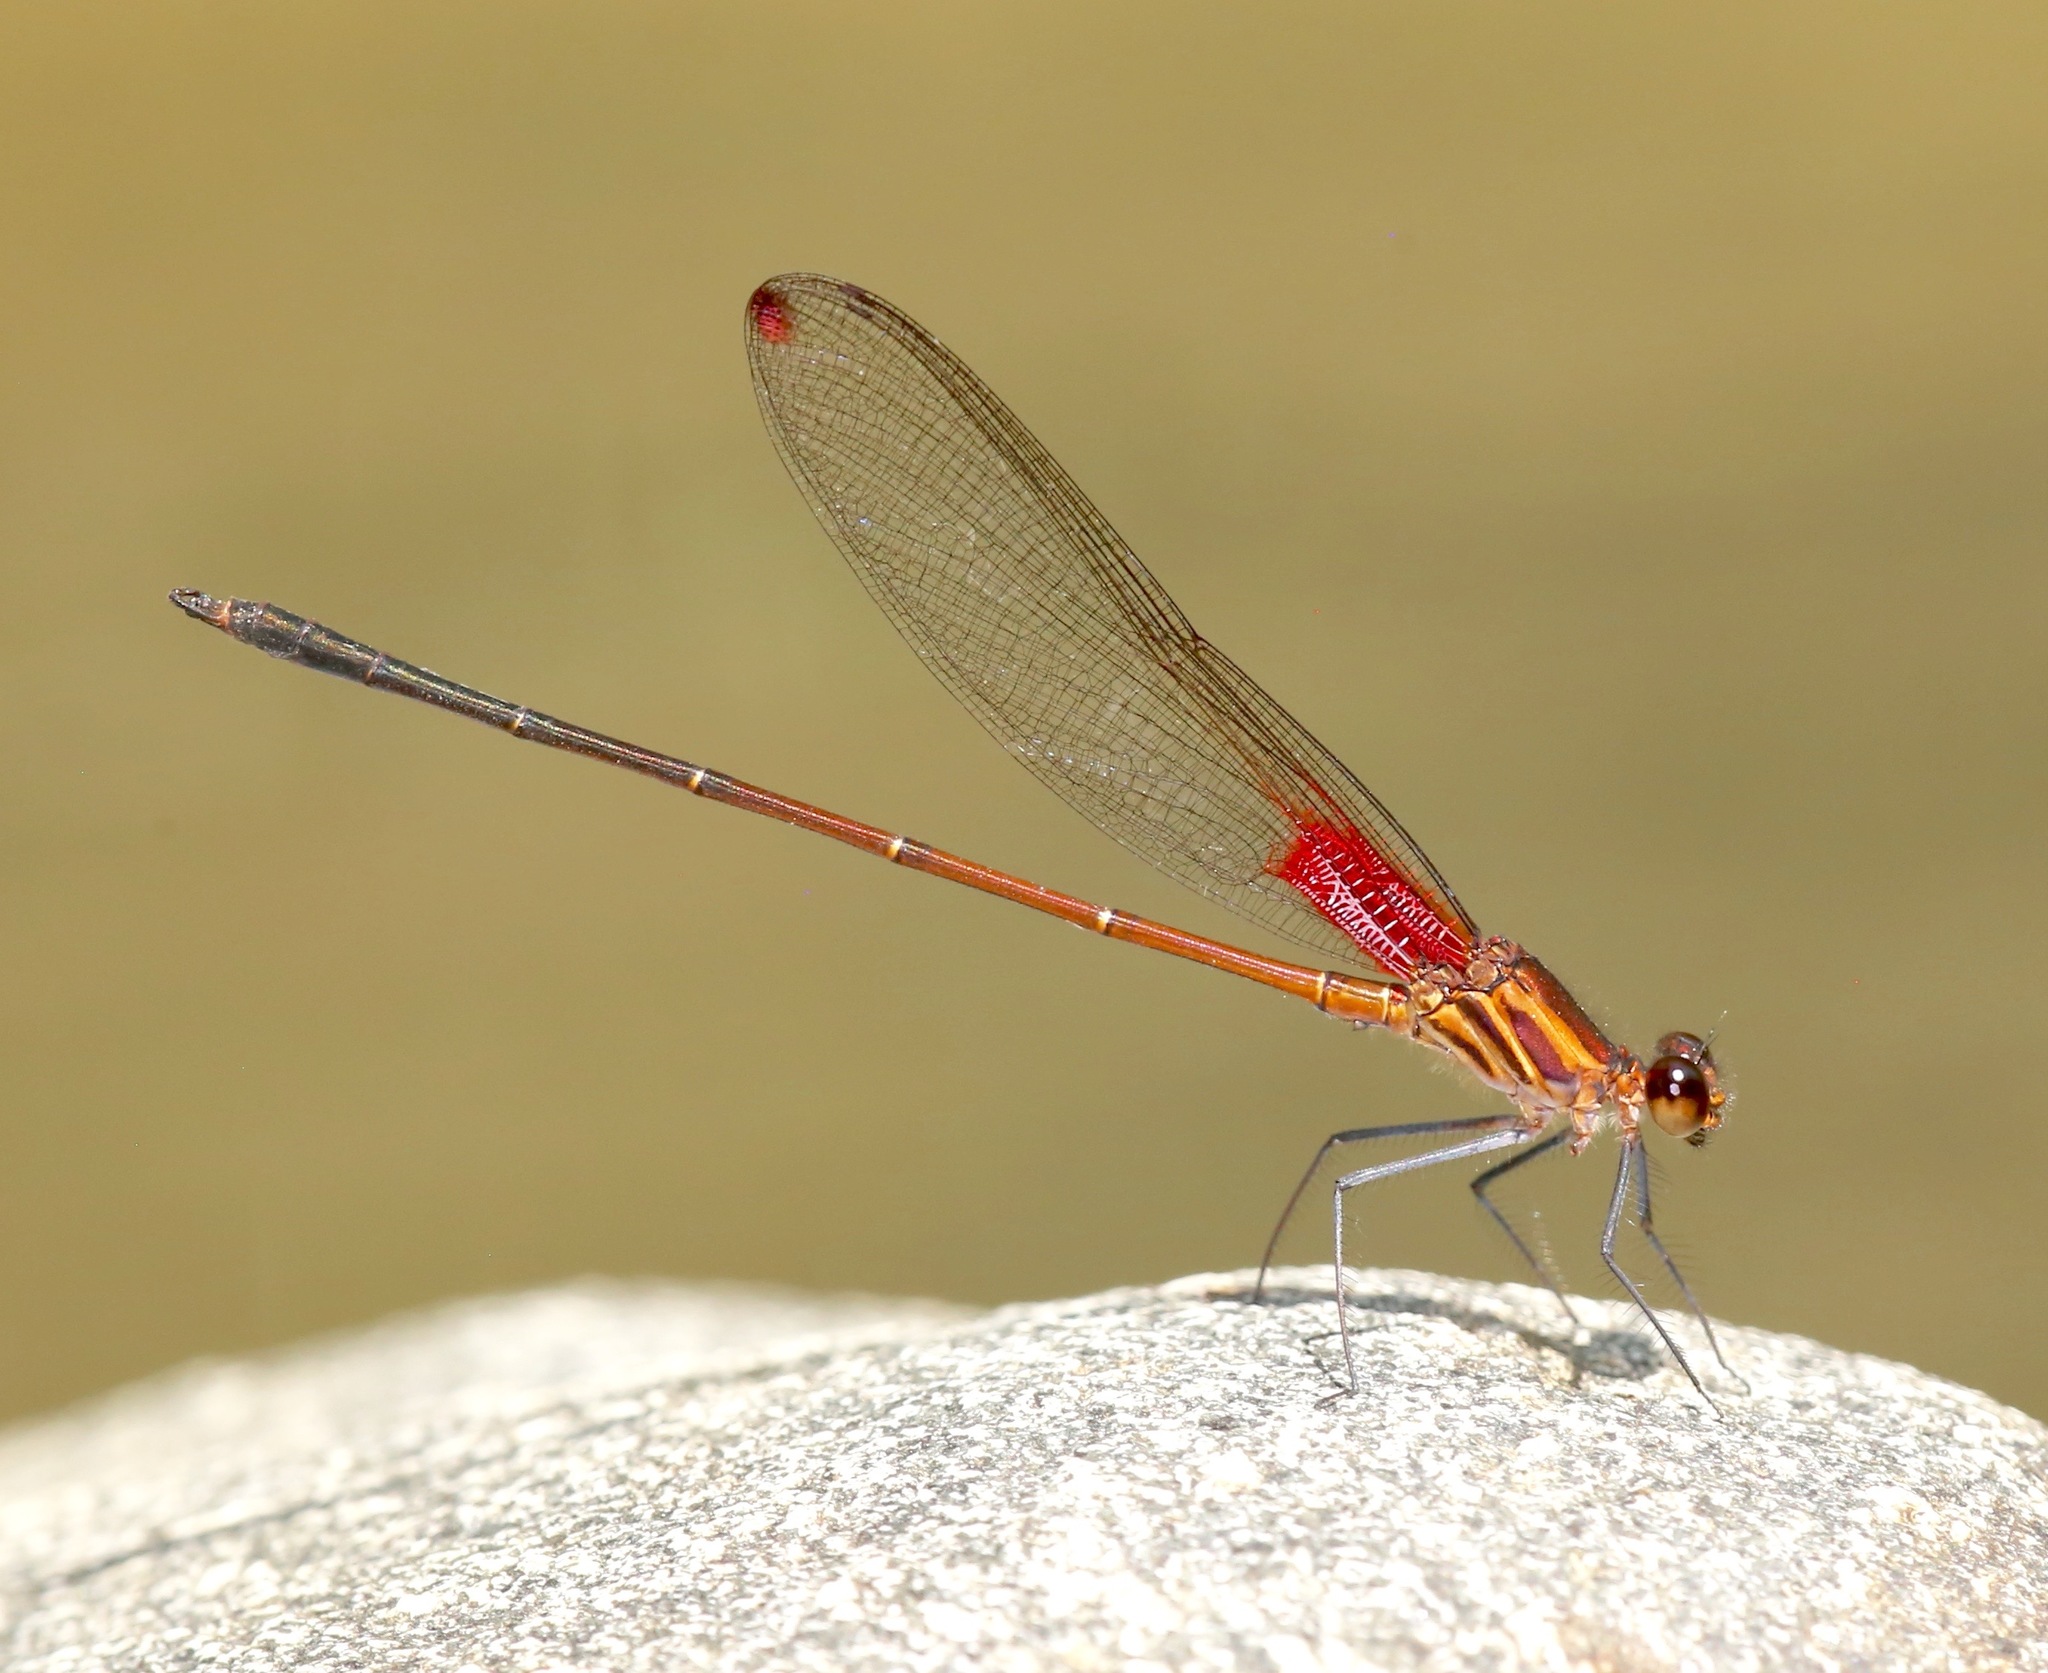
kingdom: Animalia
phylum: Arthropoda
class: Insecta
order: Odonata
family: Calopterygidae
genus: Hetaerina
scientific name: Hetaerina occisa
